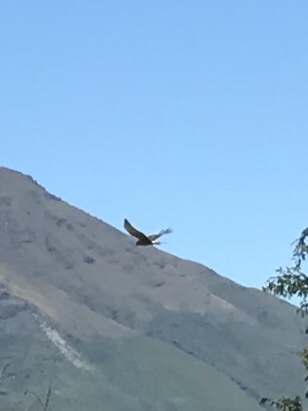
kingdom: Animalia
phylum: Chordata
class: Aves
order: Accipitriformes
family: Accipitridae
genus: Circus
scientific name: Circus approximans
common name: Swamp harrier
